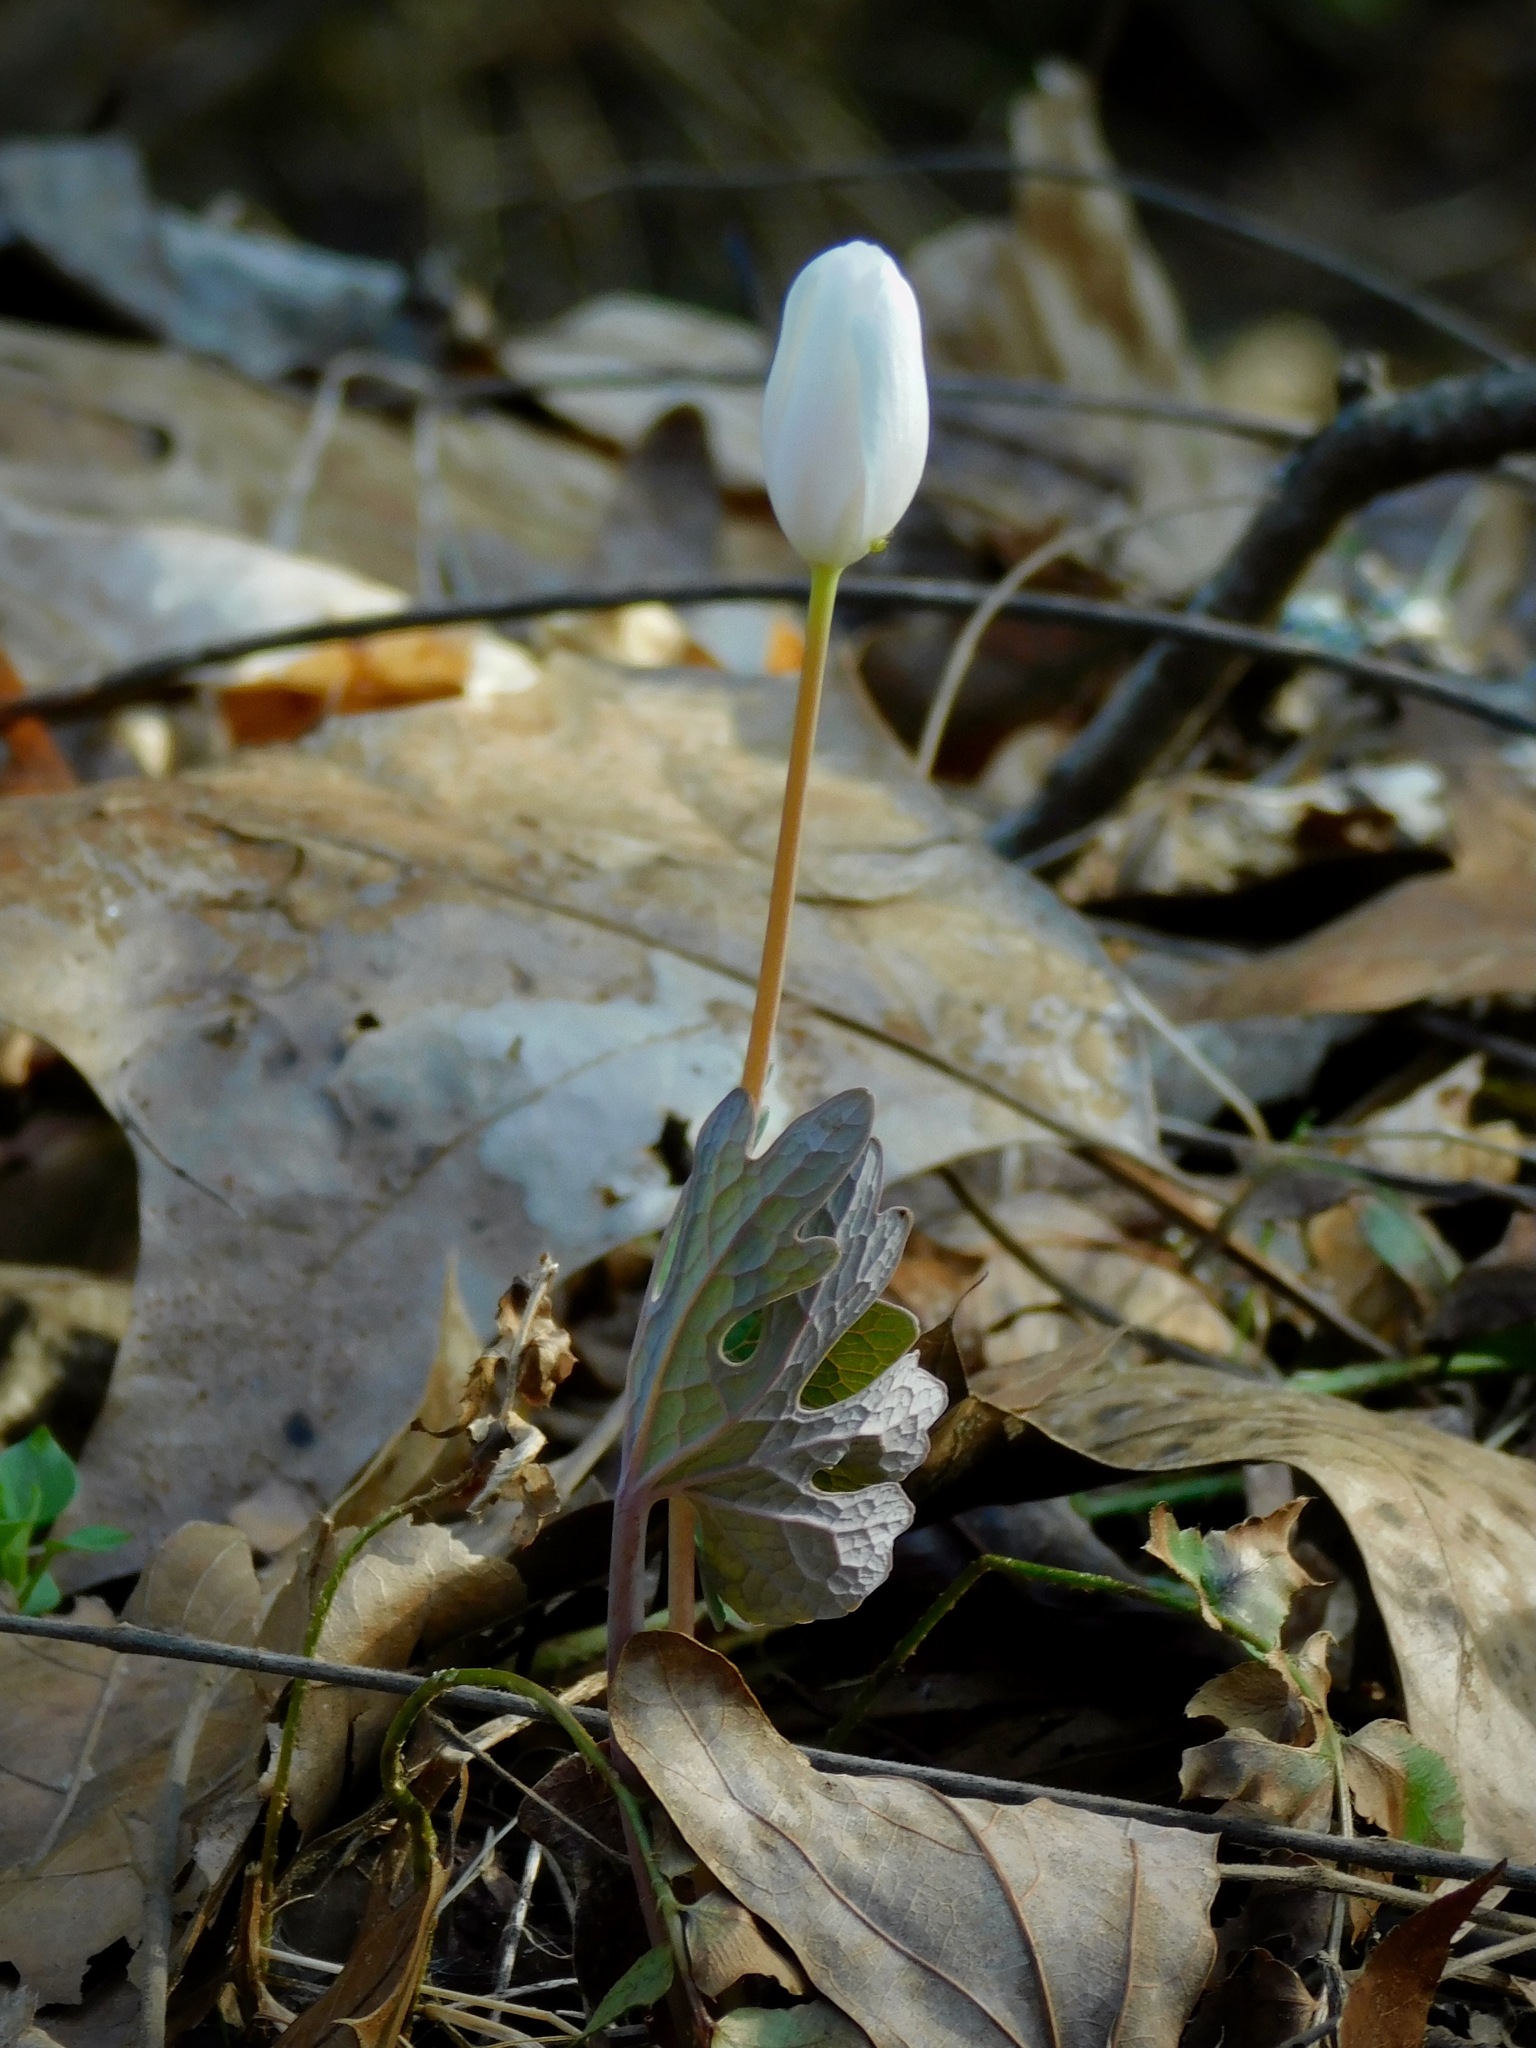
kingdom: Plantae
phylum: Tracheophyta
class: Magnoliopsida
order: Ranunculales
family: Papaveraceae
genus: Sanguinaria
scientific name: Sanguinaria canadensis
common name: Bloodroot
